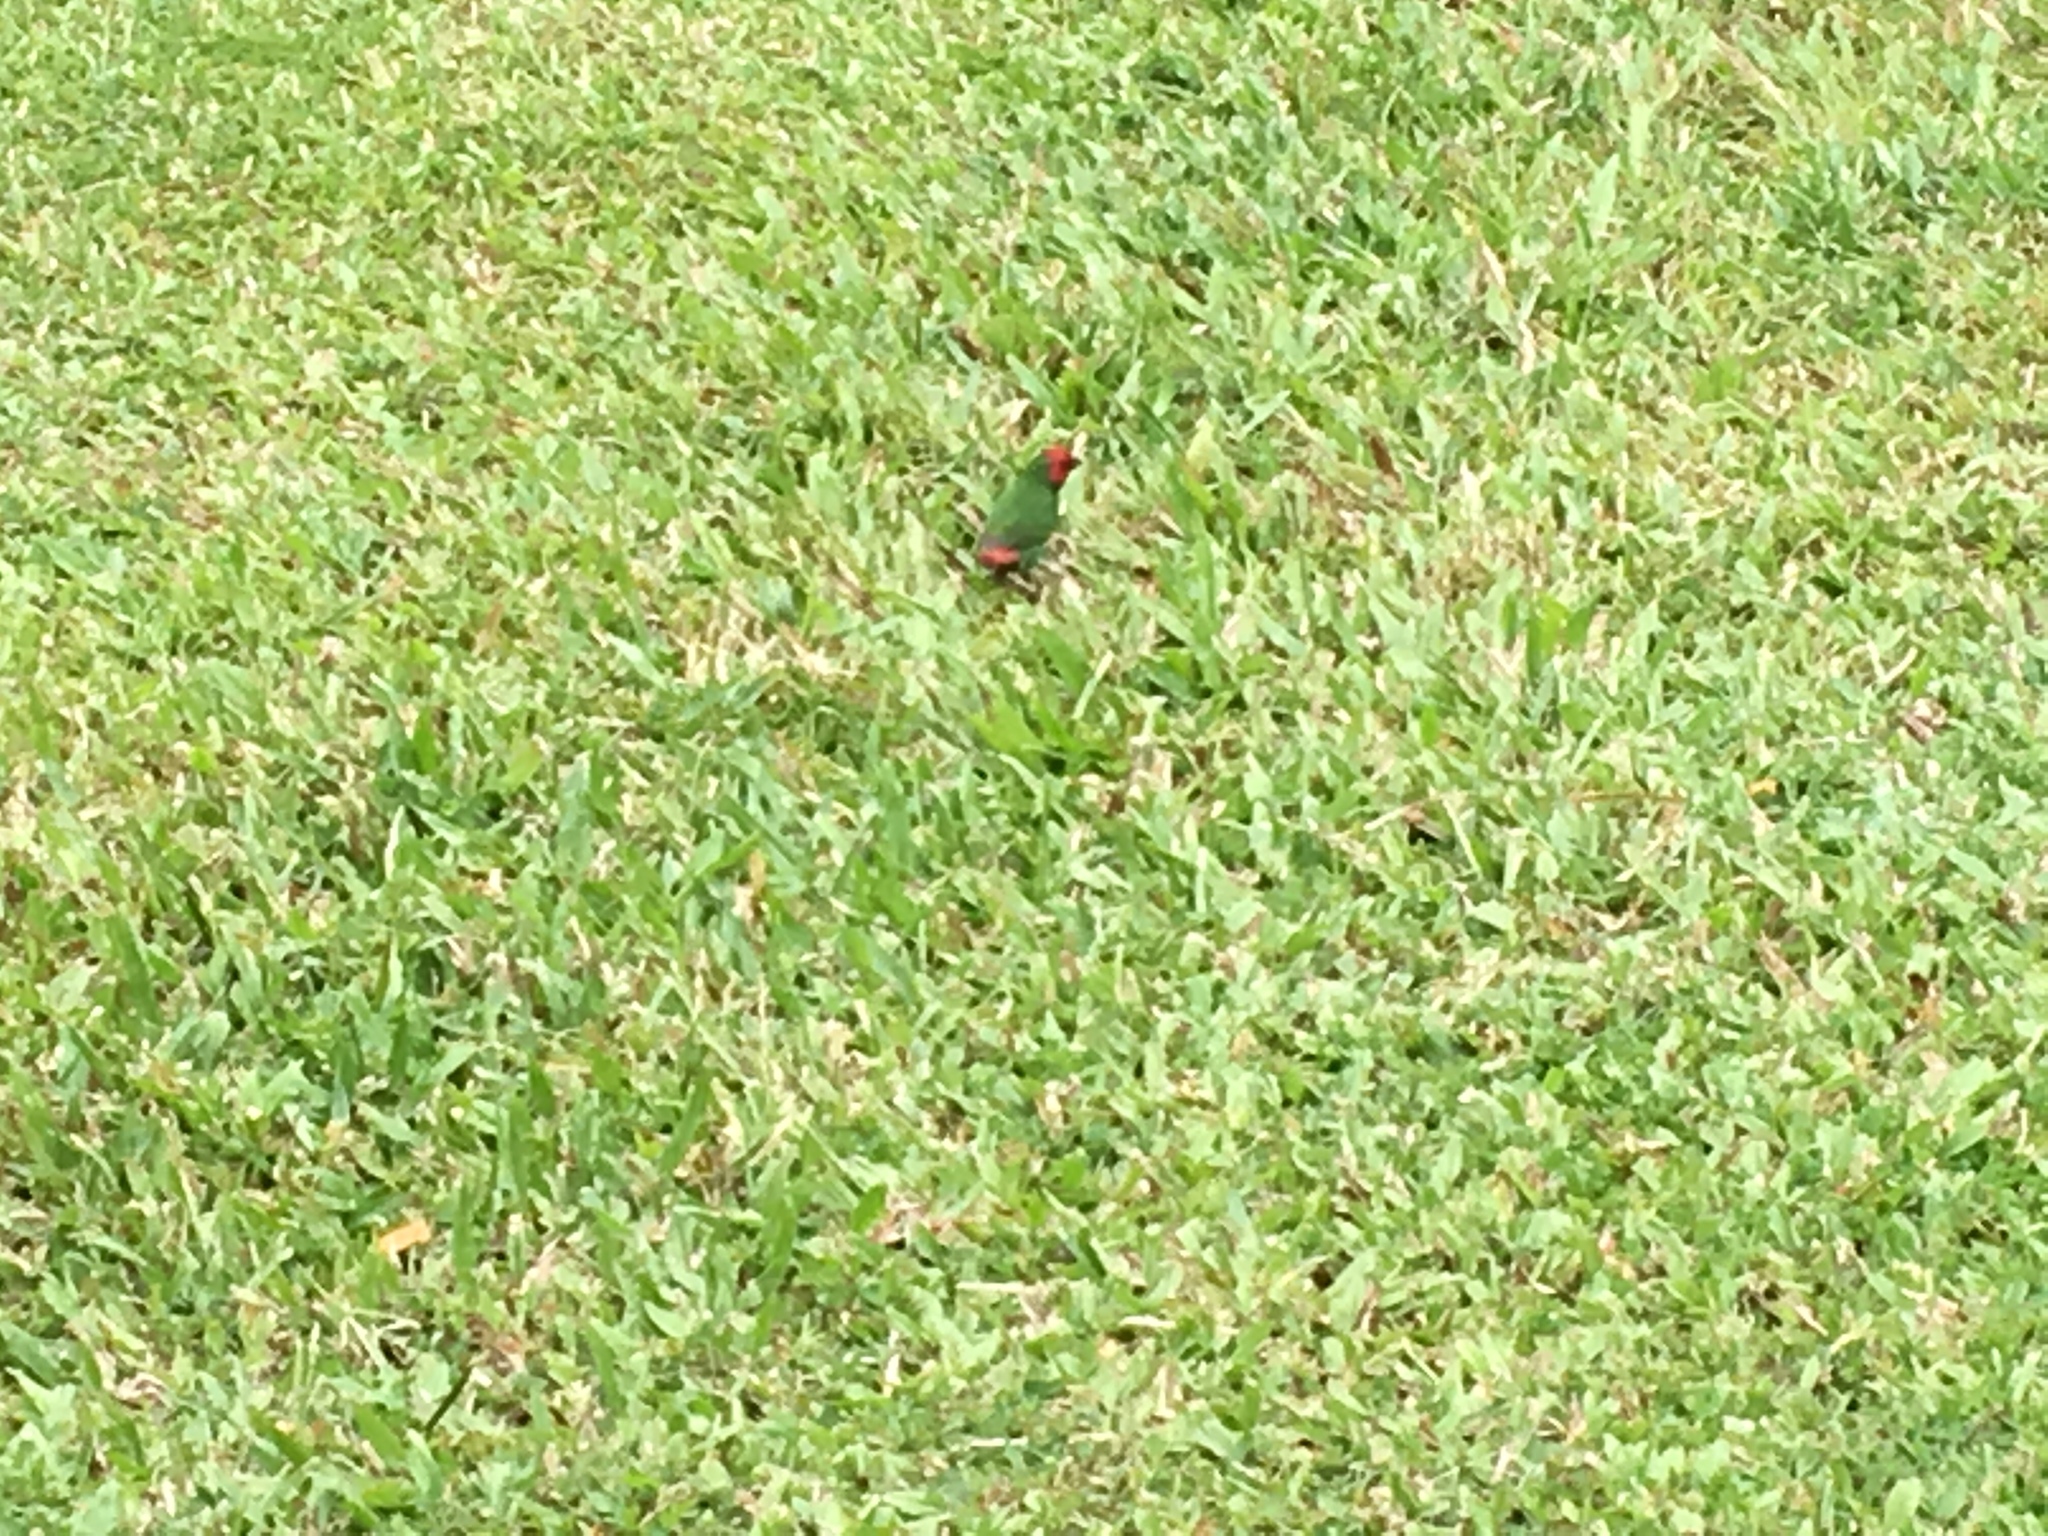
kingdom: Animalia
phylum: Chordata
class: Aves
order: Passeriformes
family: Estrildidae
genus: Erythrura
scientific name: Erythrura pealii
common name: Fiji parrotfinch
